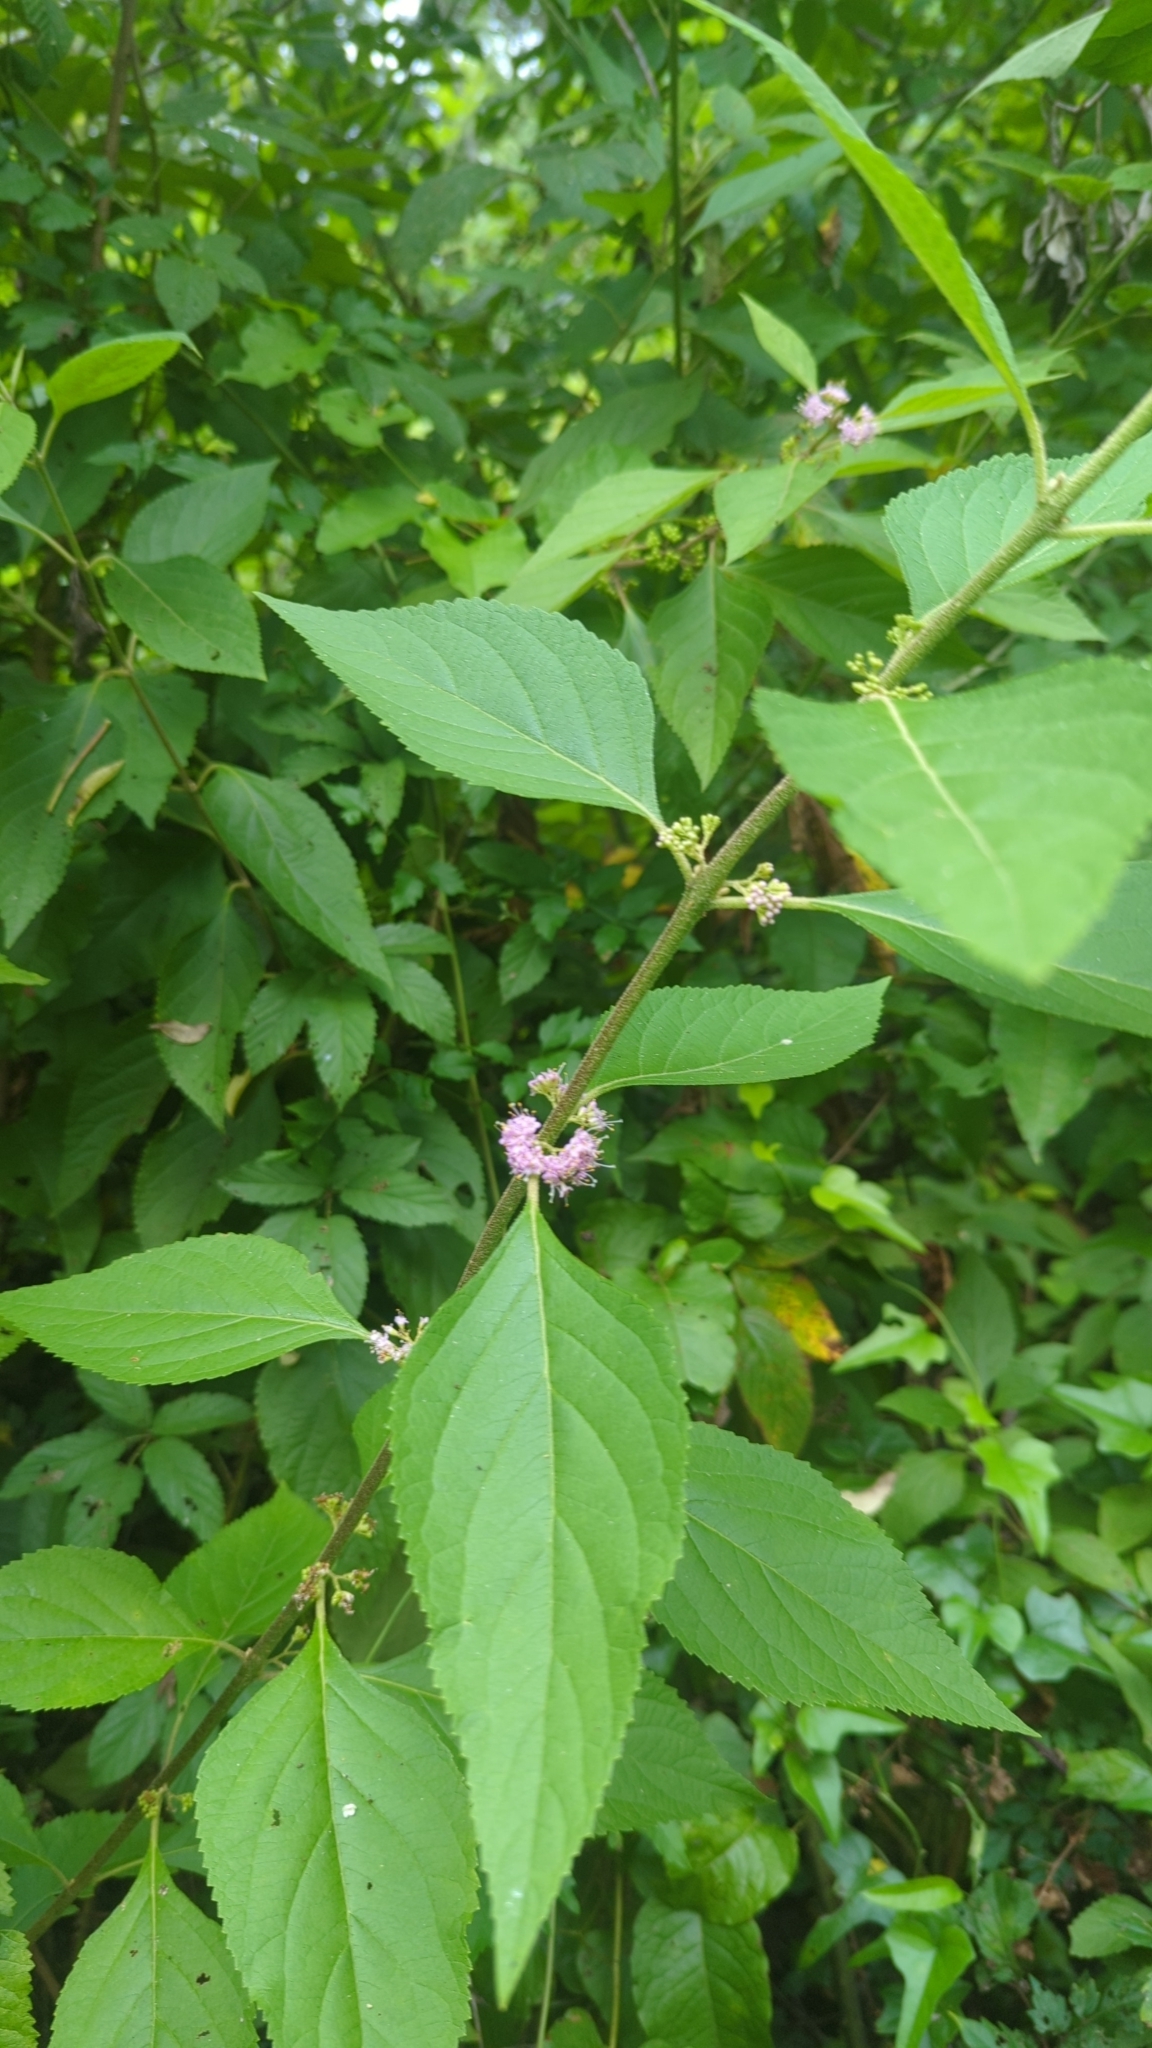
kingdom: Plantae
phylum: Tracheophyta
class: Magnoliopsida
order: Lamiales
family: Lamiaceae
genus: Callicarpa
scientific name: Callicarpa americana
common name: American beautyberry
